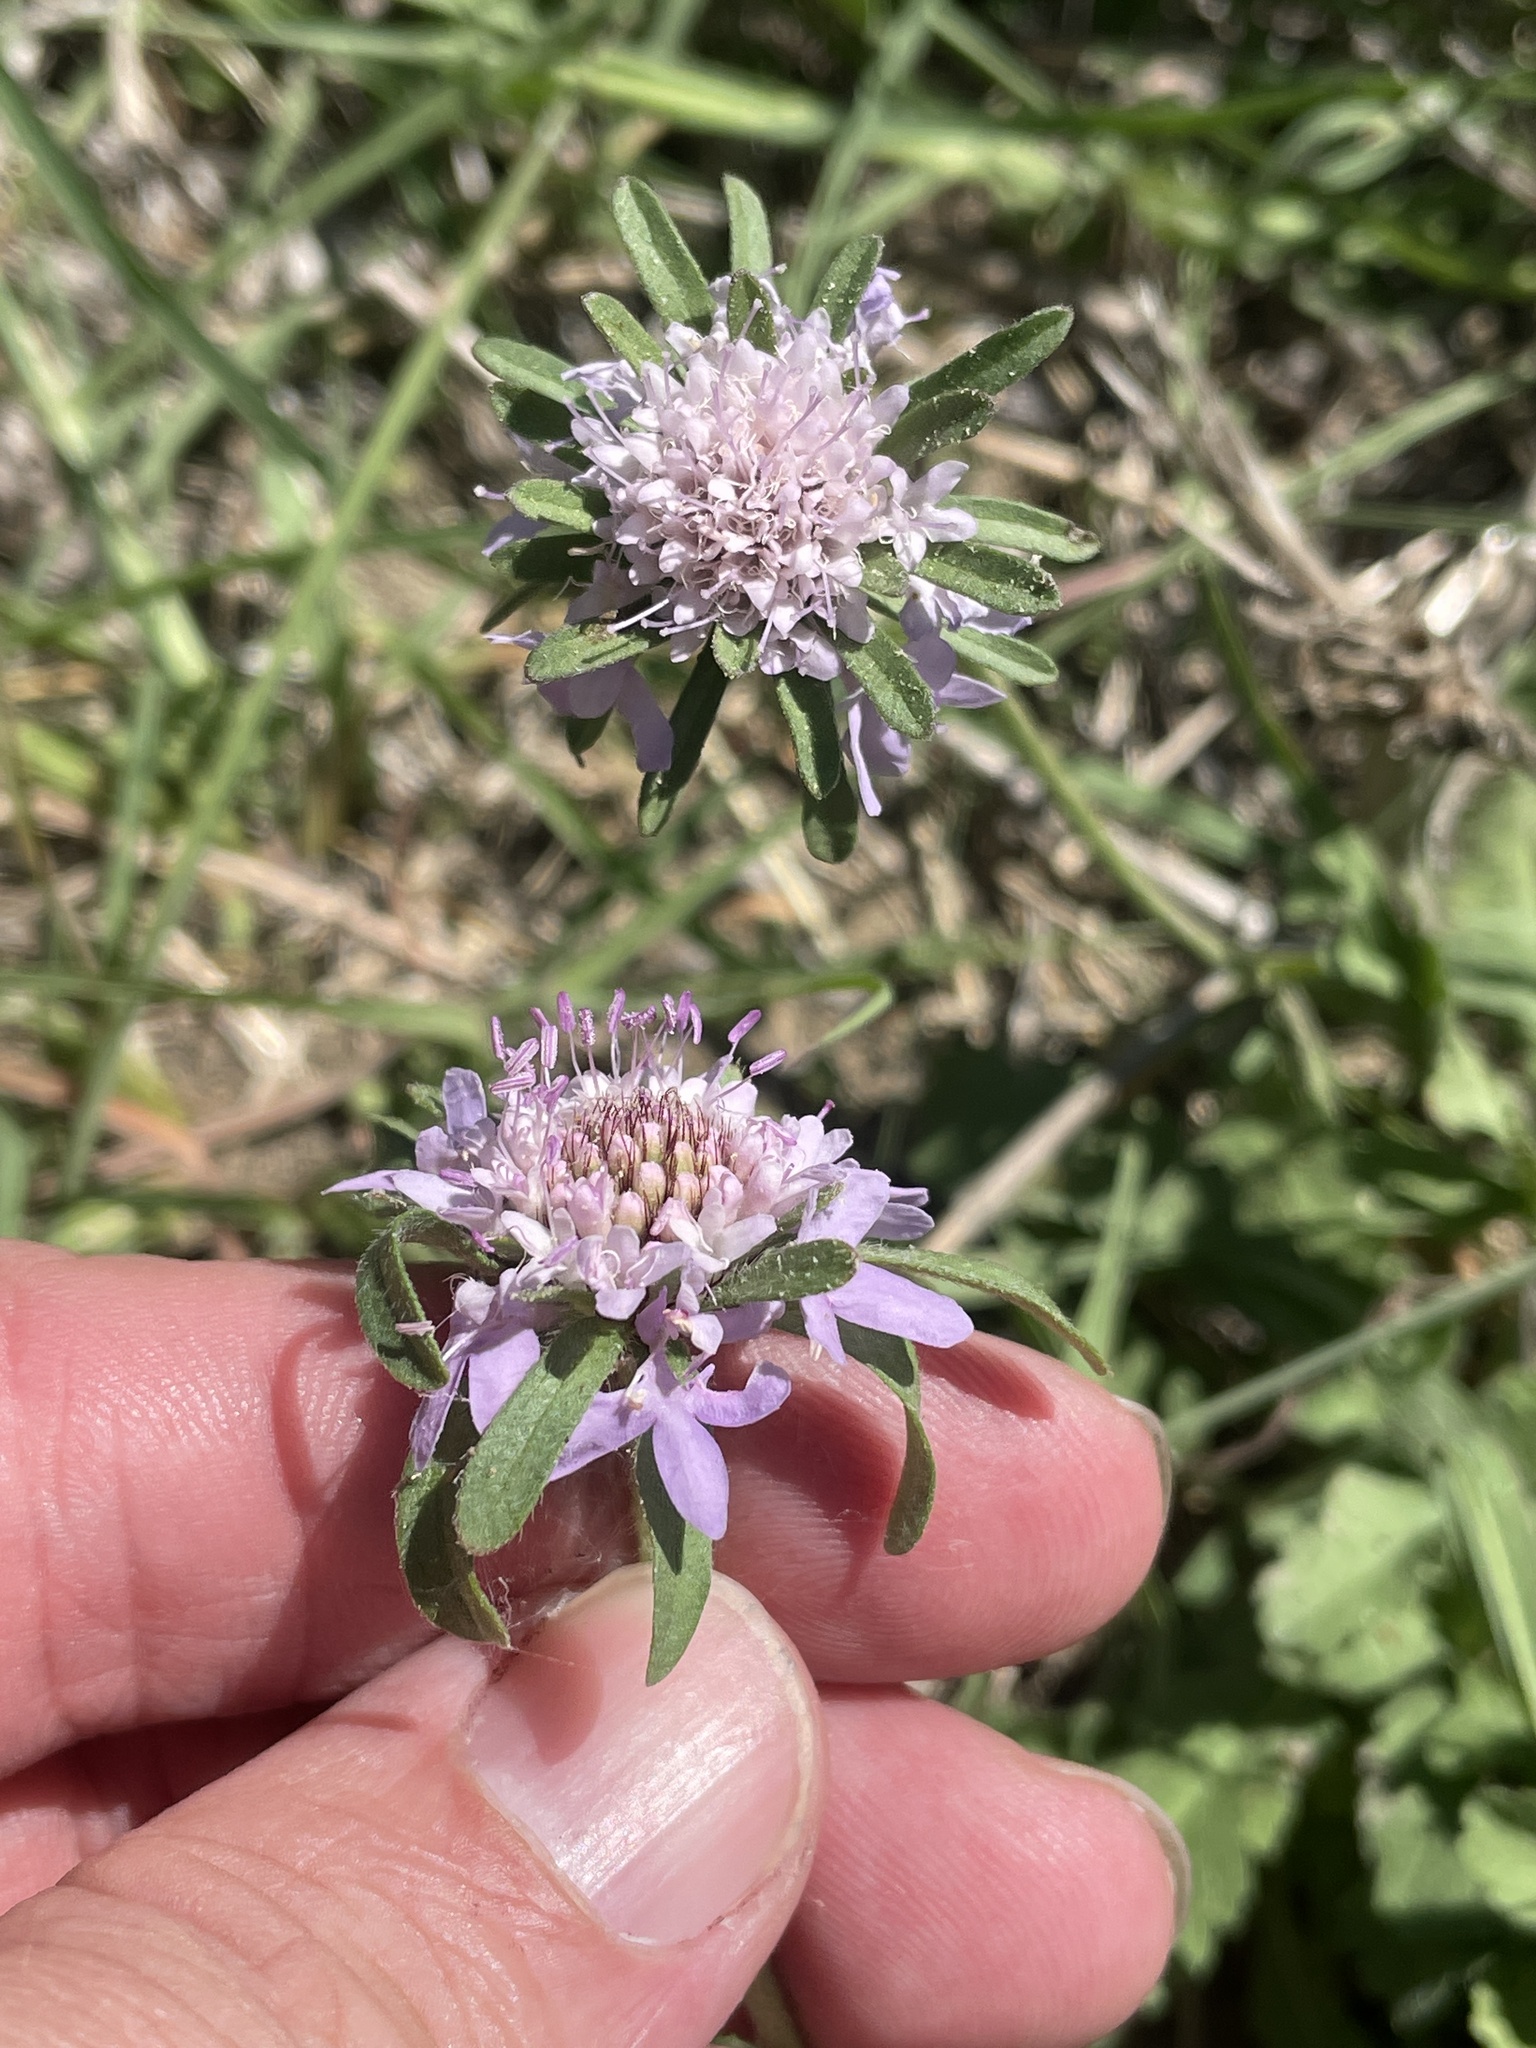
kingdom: Plantae
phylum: Tracheophyta
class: Magnoliopsida
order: Dipsacales
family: Caprifoliaceae
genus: Sixalix
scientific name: Sixalix atropurpurea
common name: Sweet scabious
